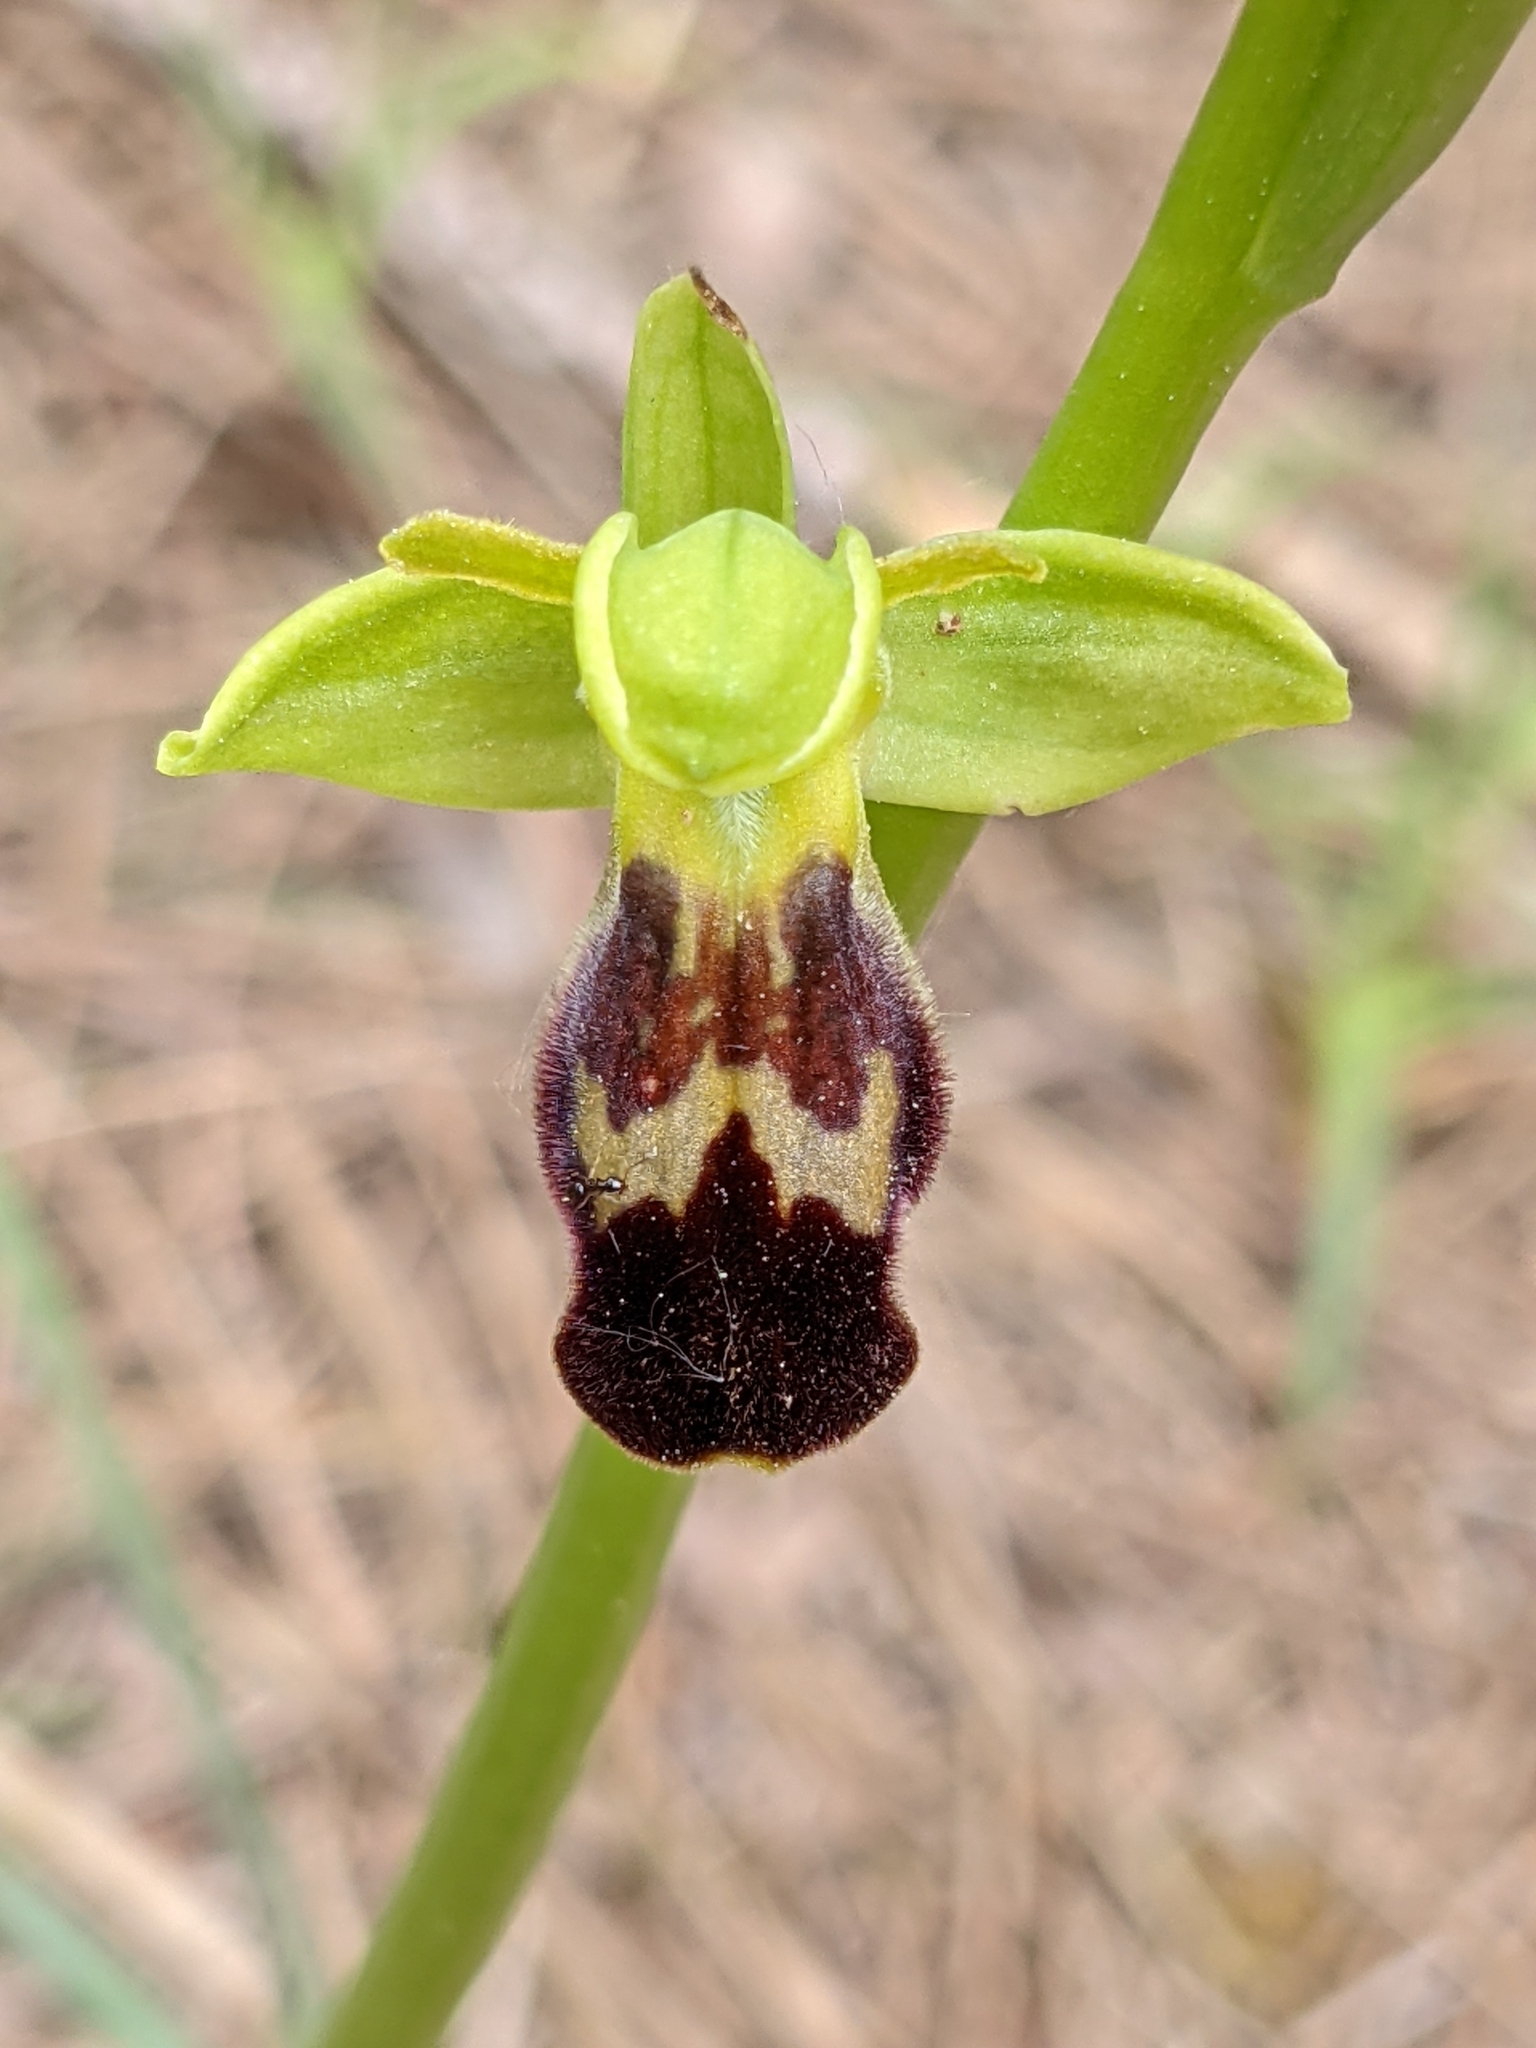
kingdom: Plantae
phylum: Tracheophyta
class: Liliopsida
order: Asparagales
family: Orchidaceae
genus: Ophrys
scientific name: Ophrys fusca
